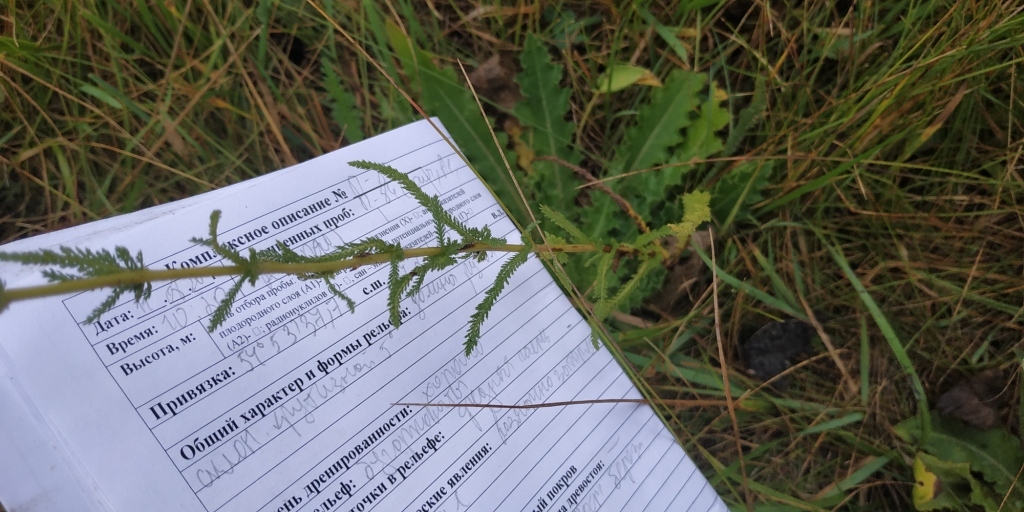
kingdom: Plantae
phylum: Tracheophyta
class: Magnoliopsida
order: Asterales
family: Asteraceae
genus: Achillea
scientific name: Achillea millefolium
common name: Yarrow
